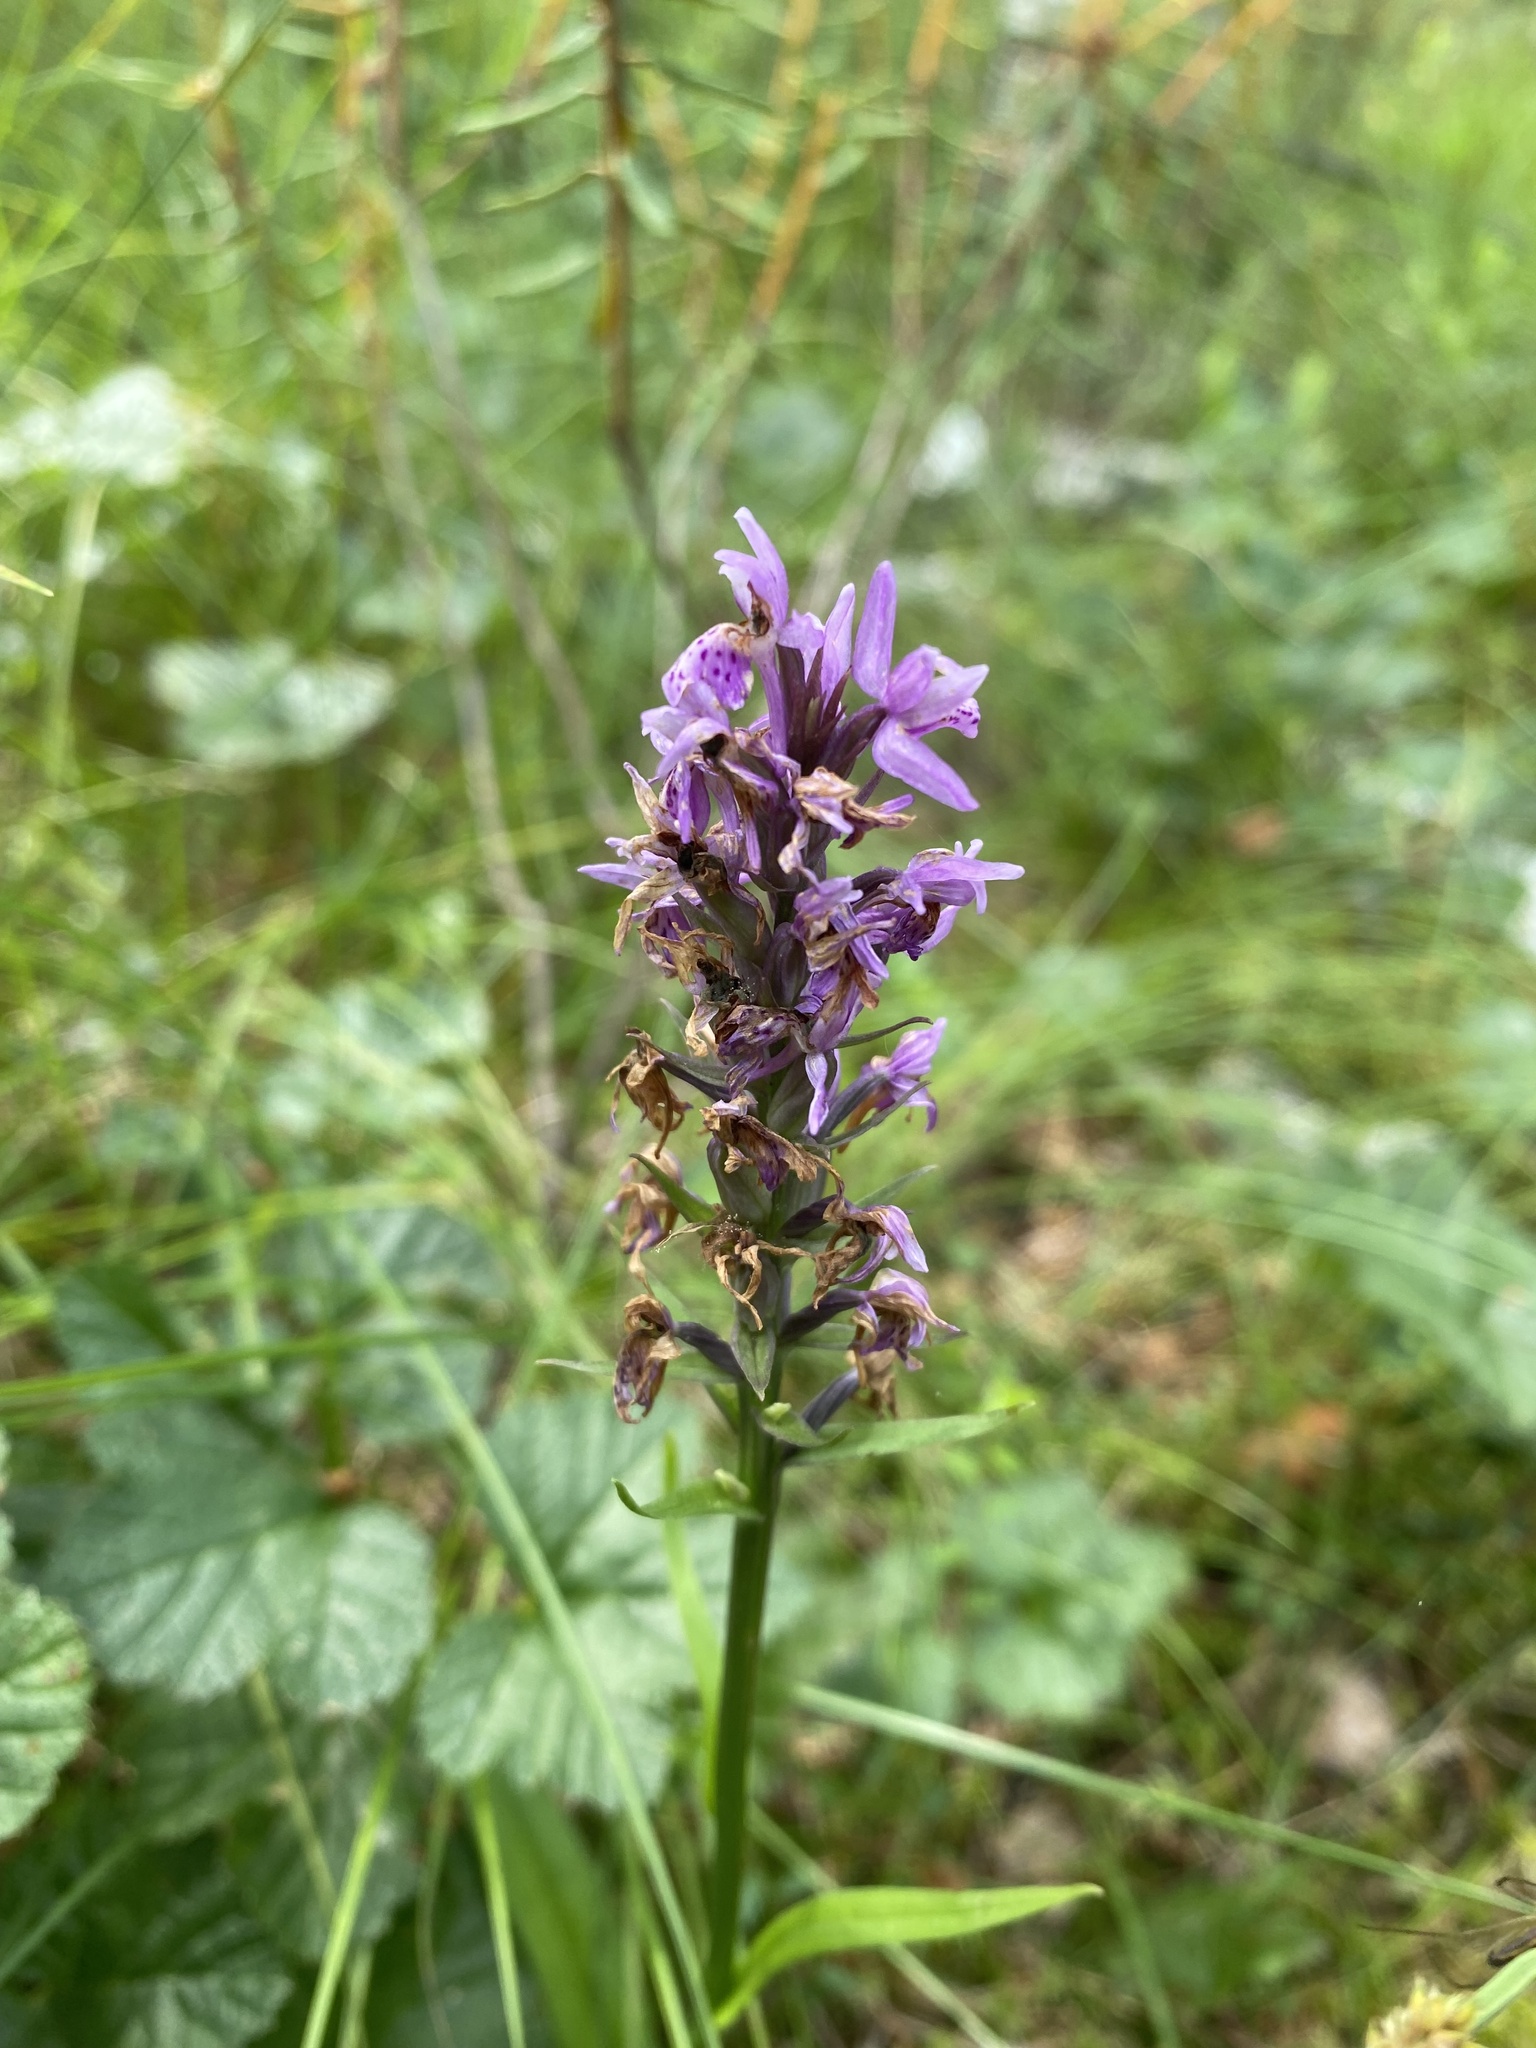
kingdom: Plantae
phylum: Tracheophyta
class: Liliopsida
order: Asparagales
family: Orchidaceae
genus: Dactylorhiza
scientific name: Dactylorhiza maculata
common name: Heath spotted-orchid
